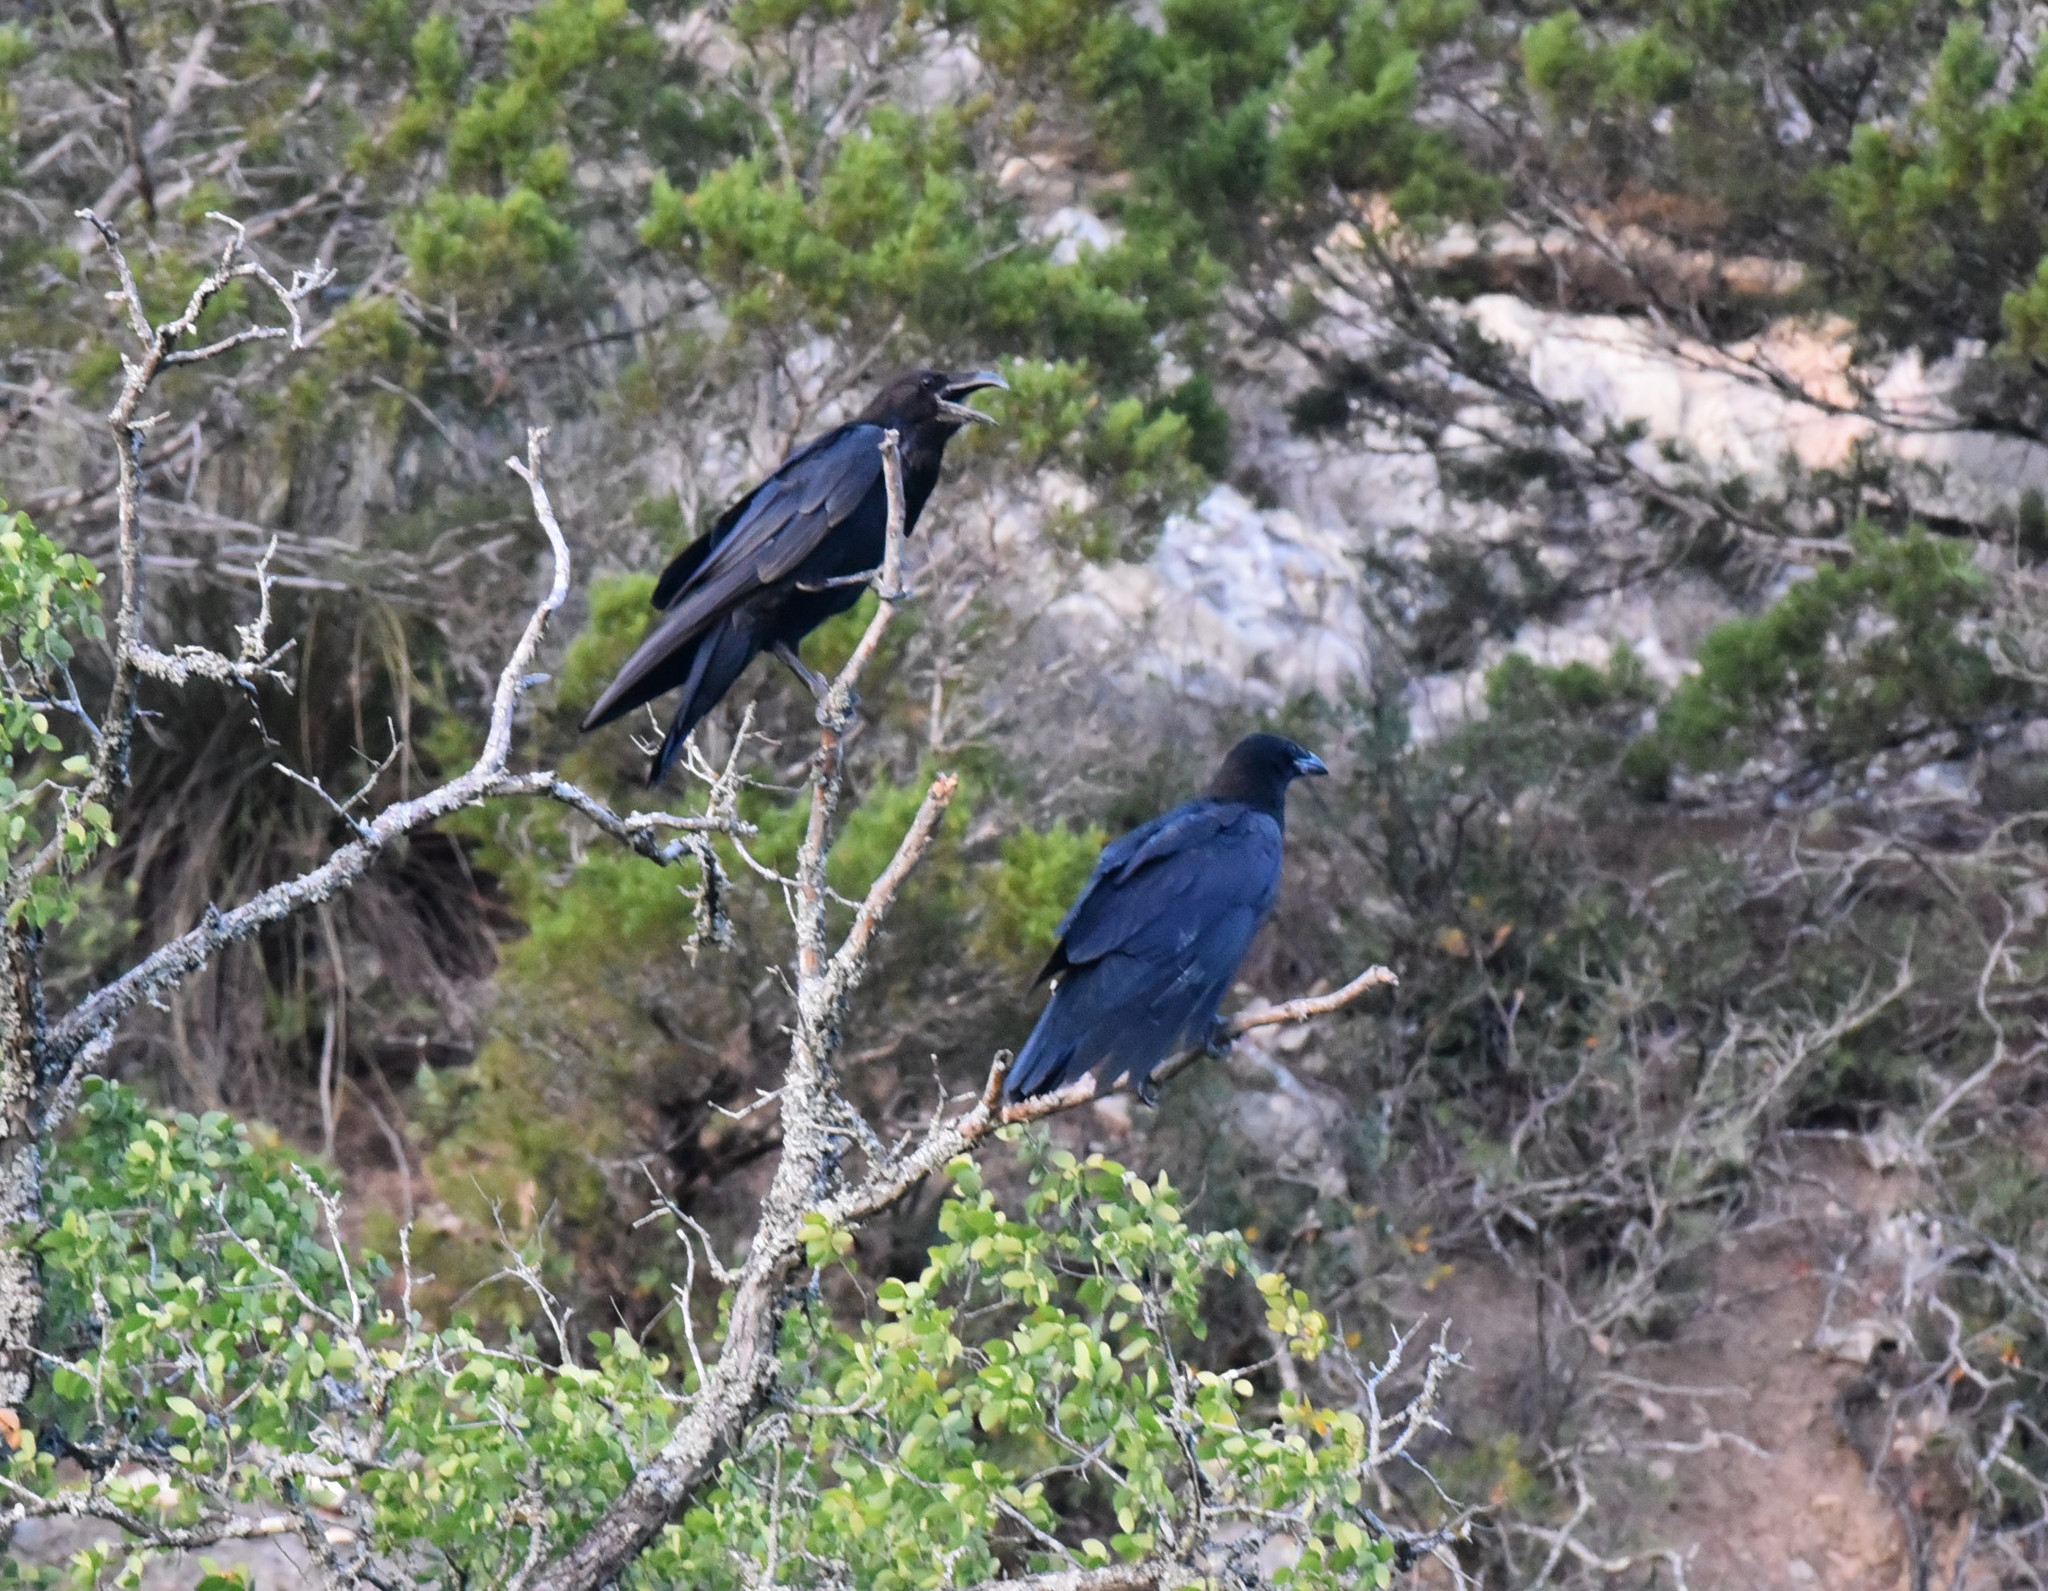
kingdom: Animalia
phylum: Chordata
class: Aves
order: Passeriformes
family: Corvidae
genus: Corvus
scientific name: Corvus corax
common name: Common raven
